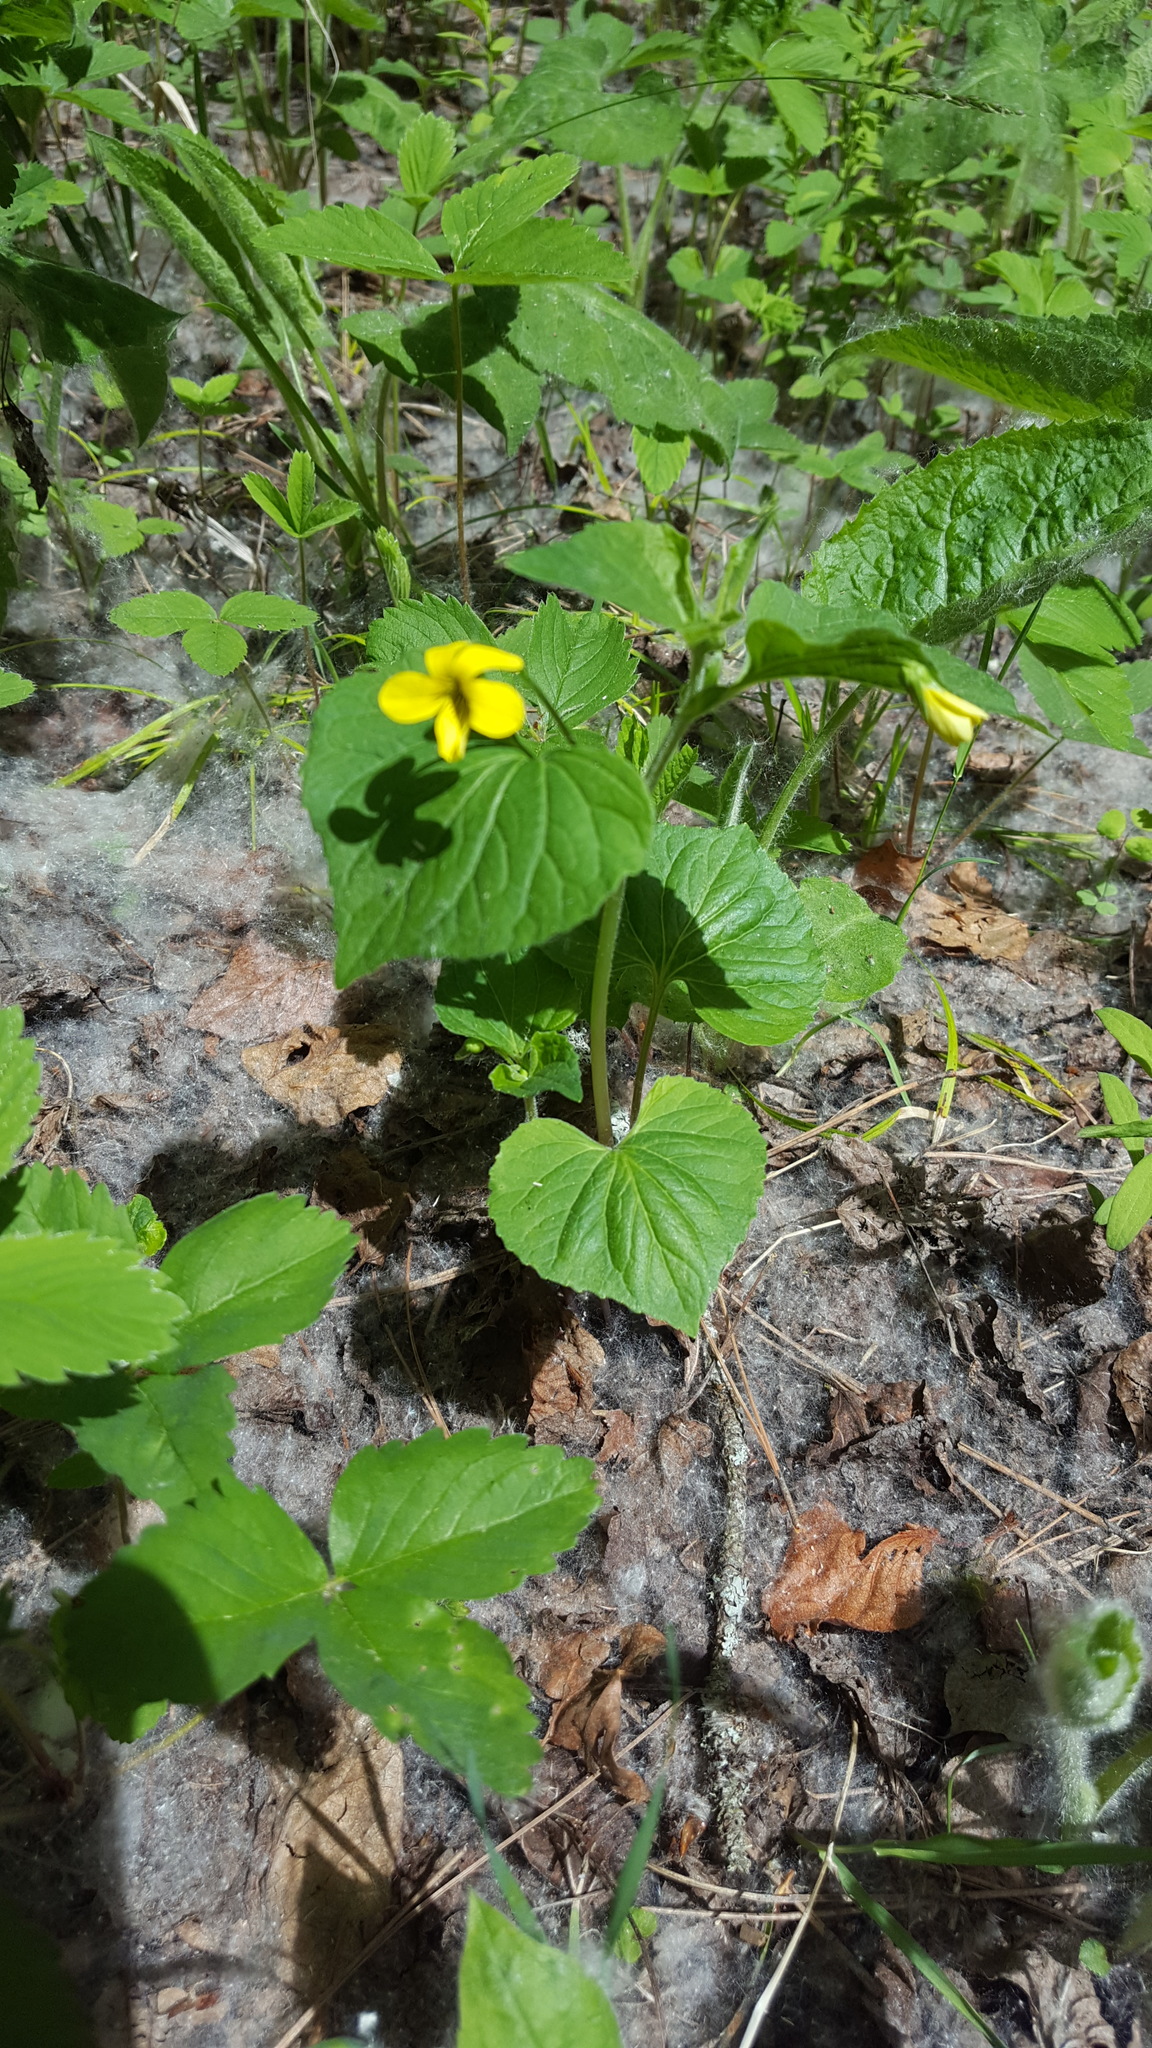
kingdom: Plantae
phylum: Tracheophyta
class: Magnoliopsida
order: Malpighiales
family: Violaceae
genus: Viola
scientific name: Viola eriocarpa
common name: Smooth yellow violet
